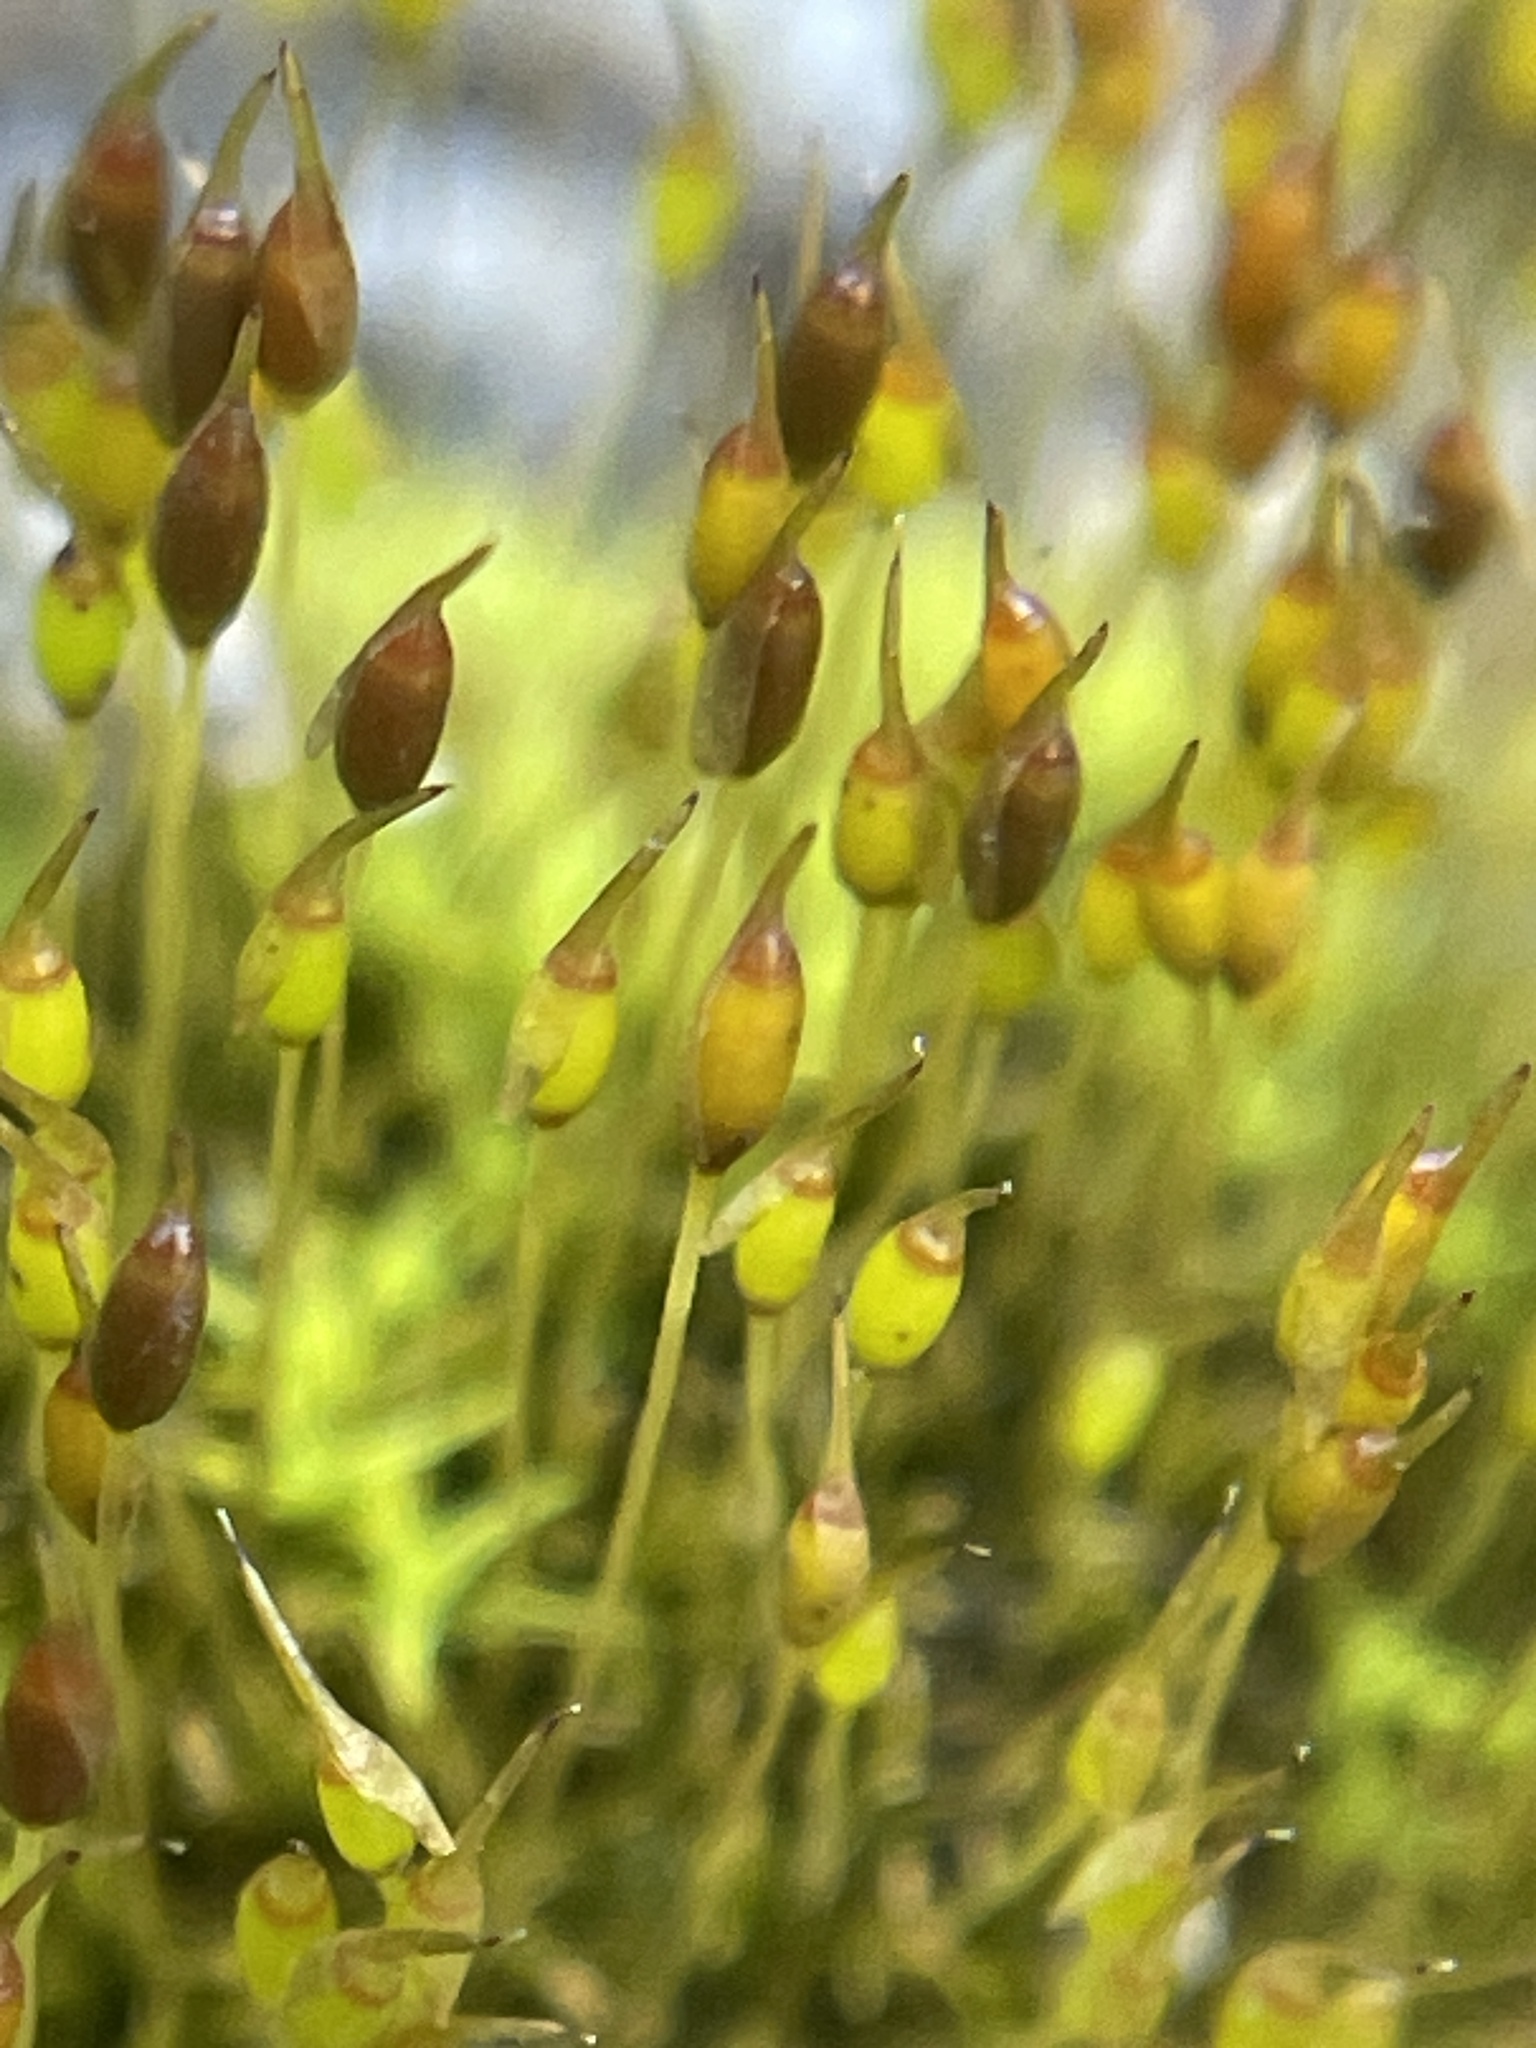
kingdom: Plantae
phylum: Bryophyta
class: Bryopsida
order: Pottiales
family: Pottiaceae
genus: Weissia
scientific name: Weissia controversa
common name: Green-tufted stubble moss
